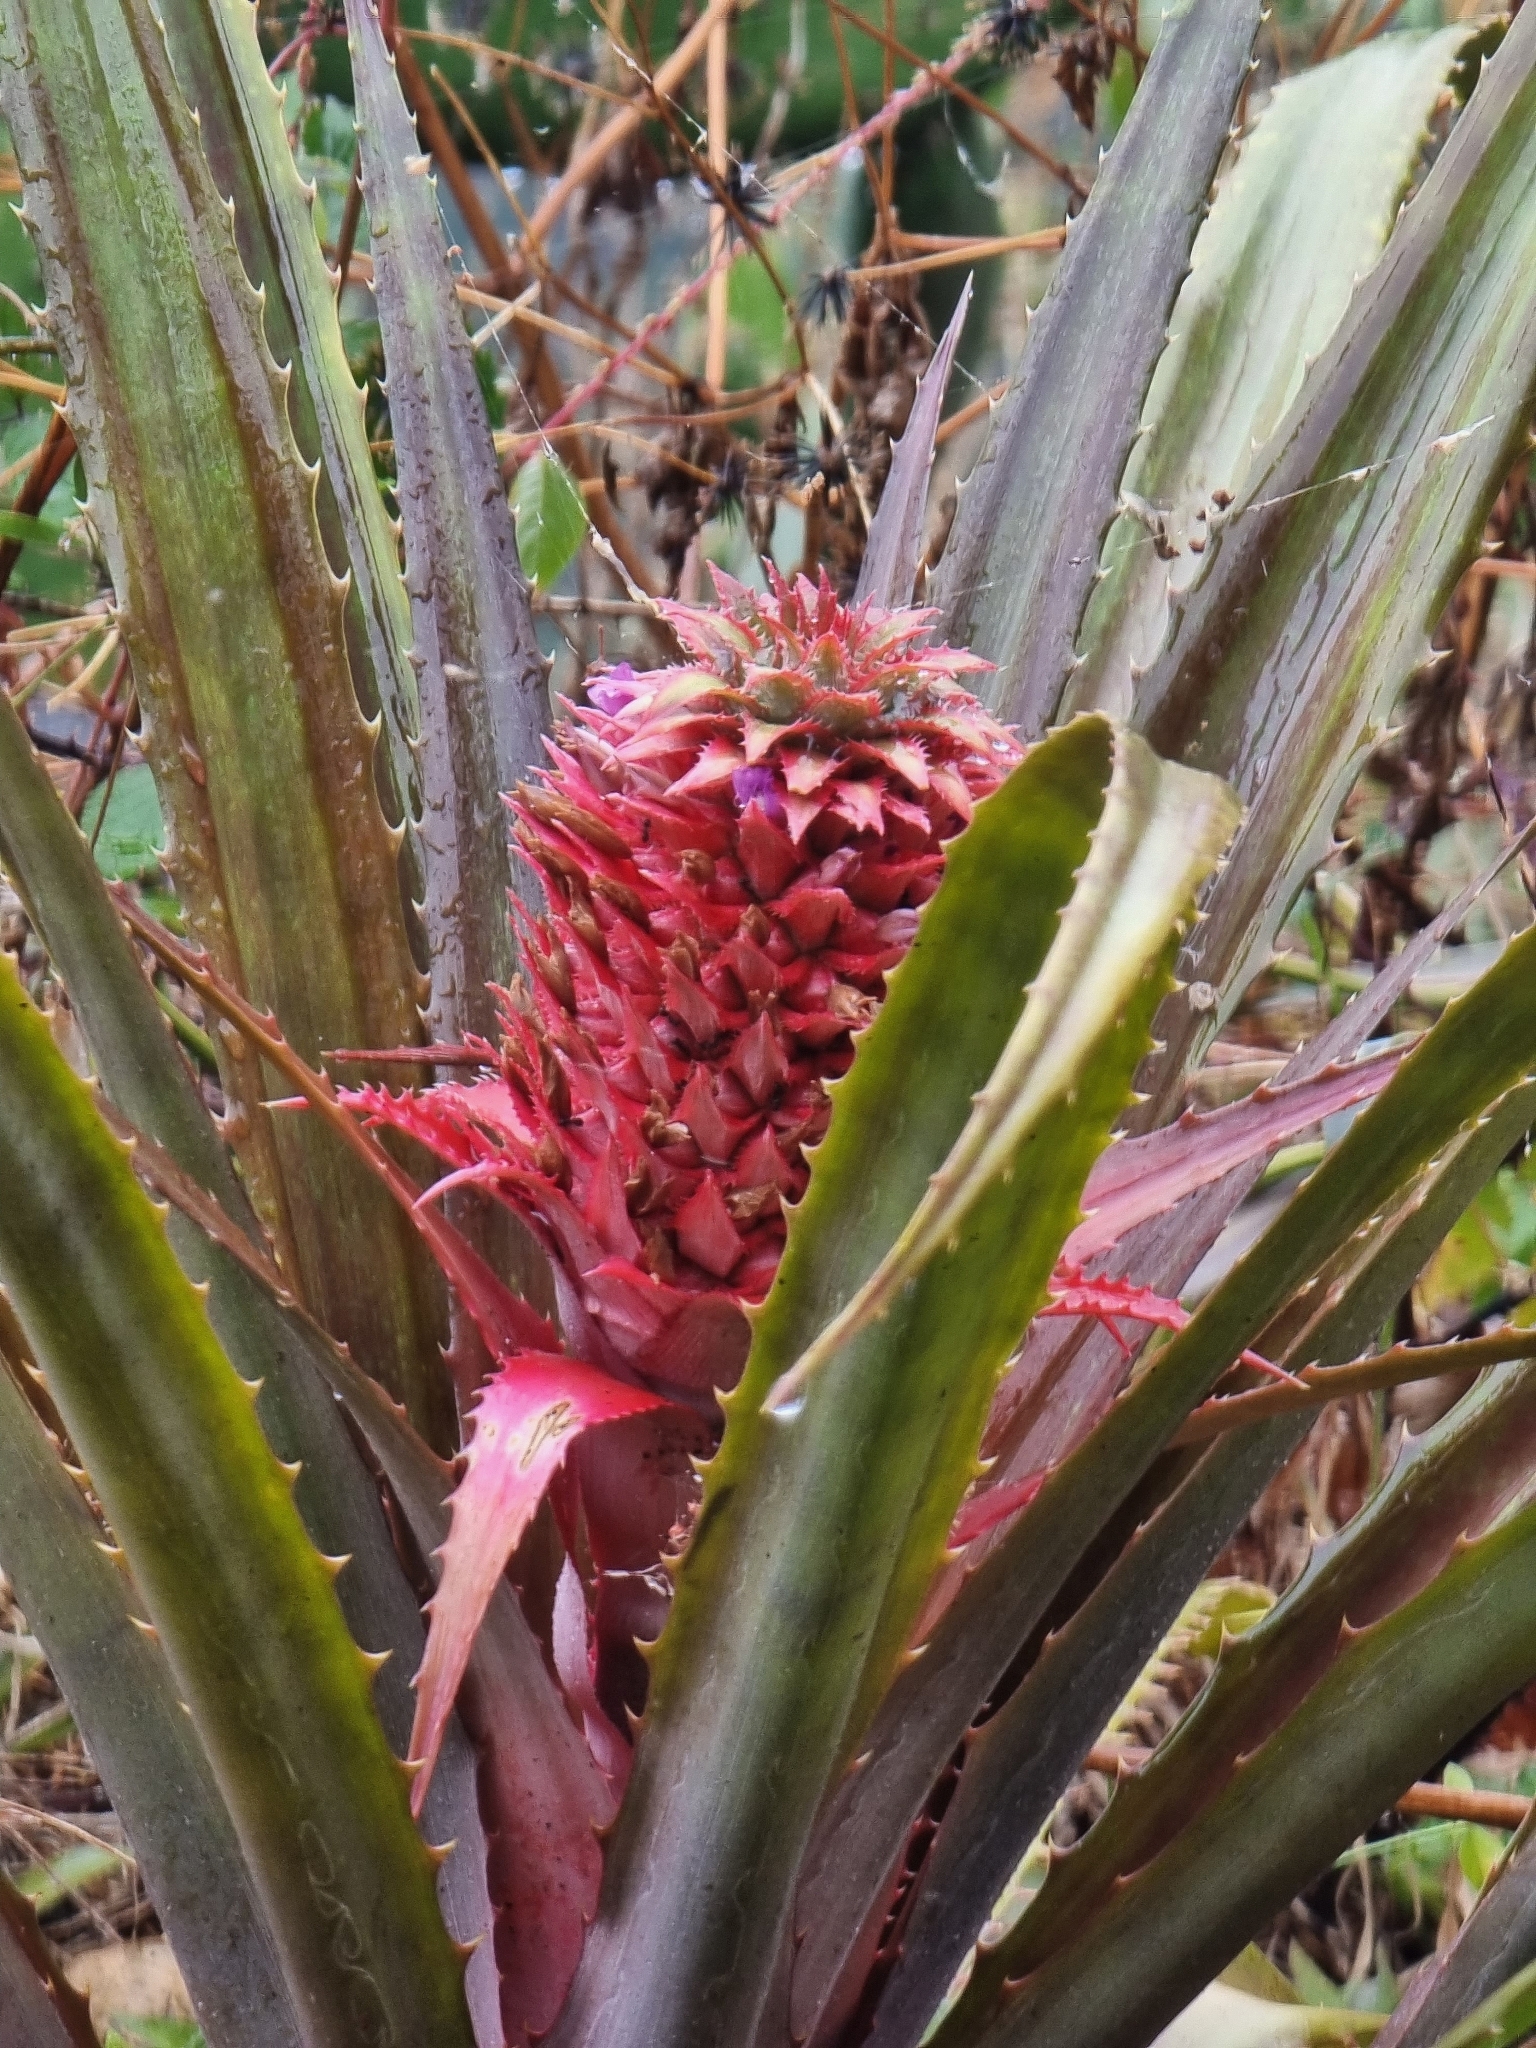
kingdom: Plantae
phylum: Tracheophyta
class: Liliopsida
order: Poales
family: Bromeliaceae
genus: Ananas
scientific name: Ananas comosus
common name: Pineapple
